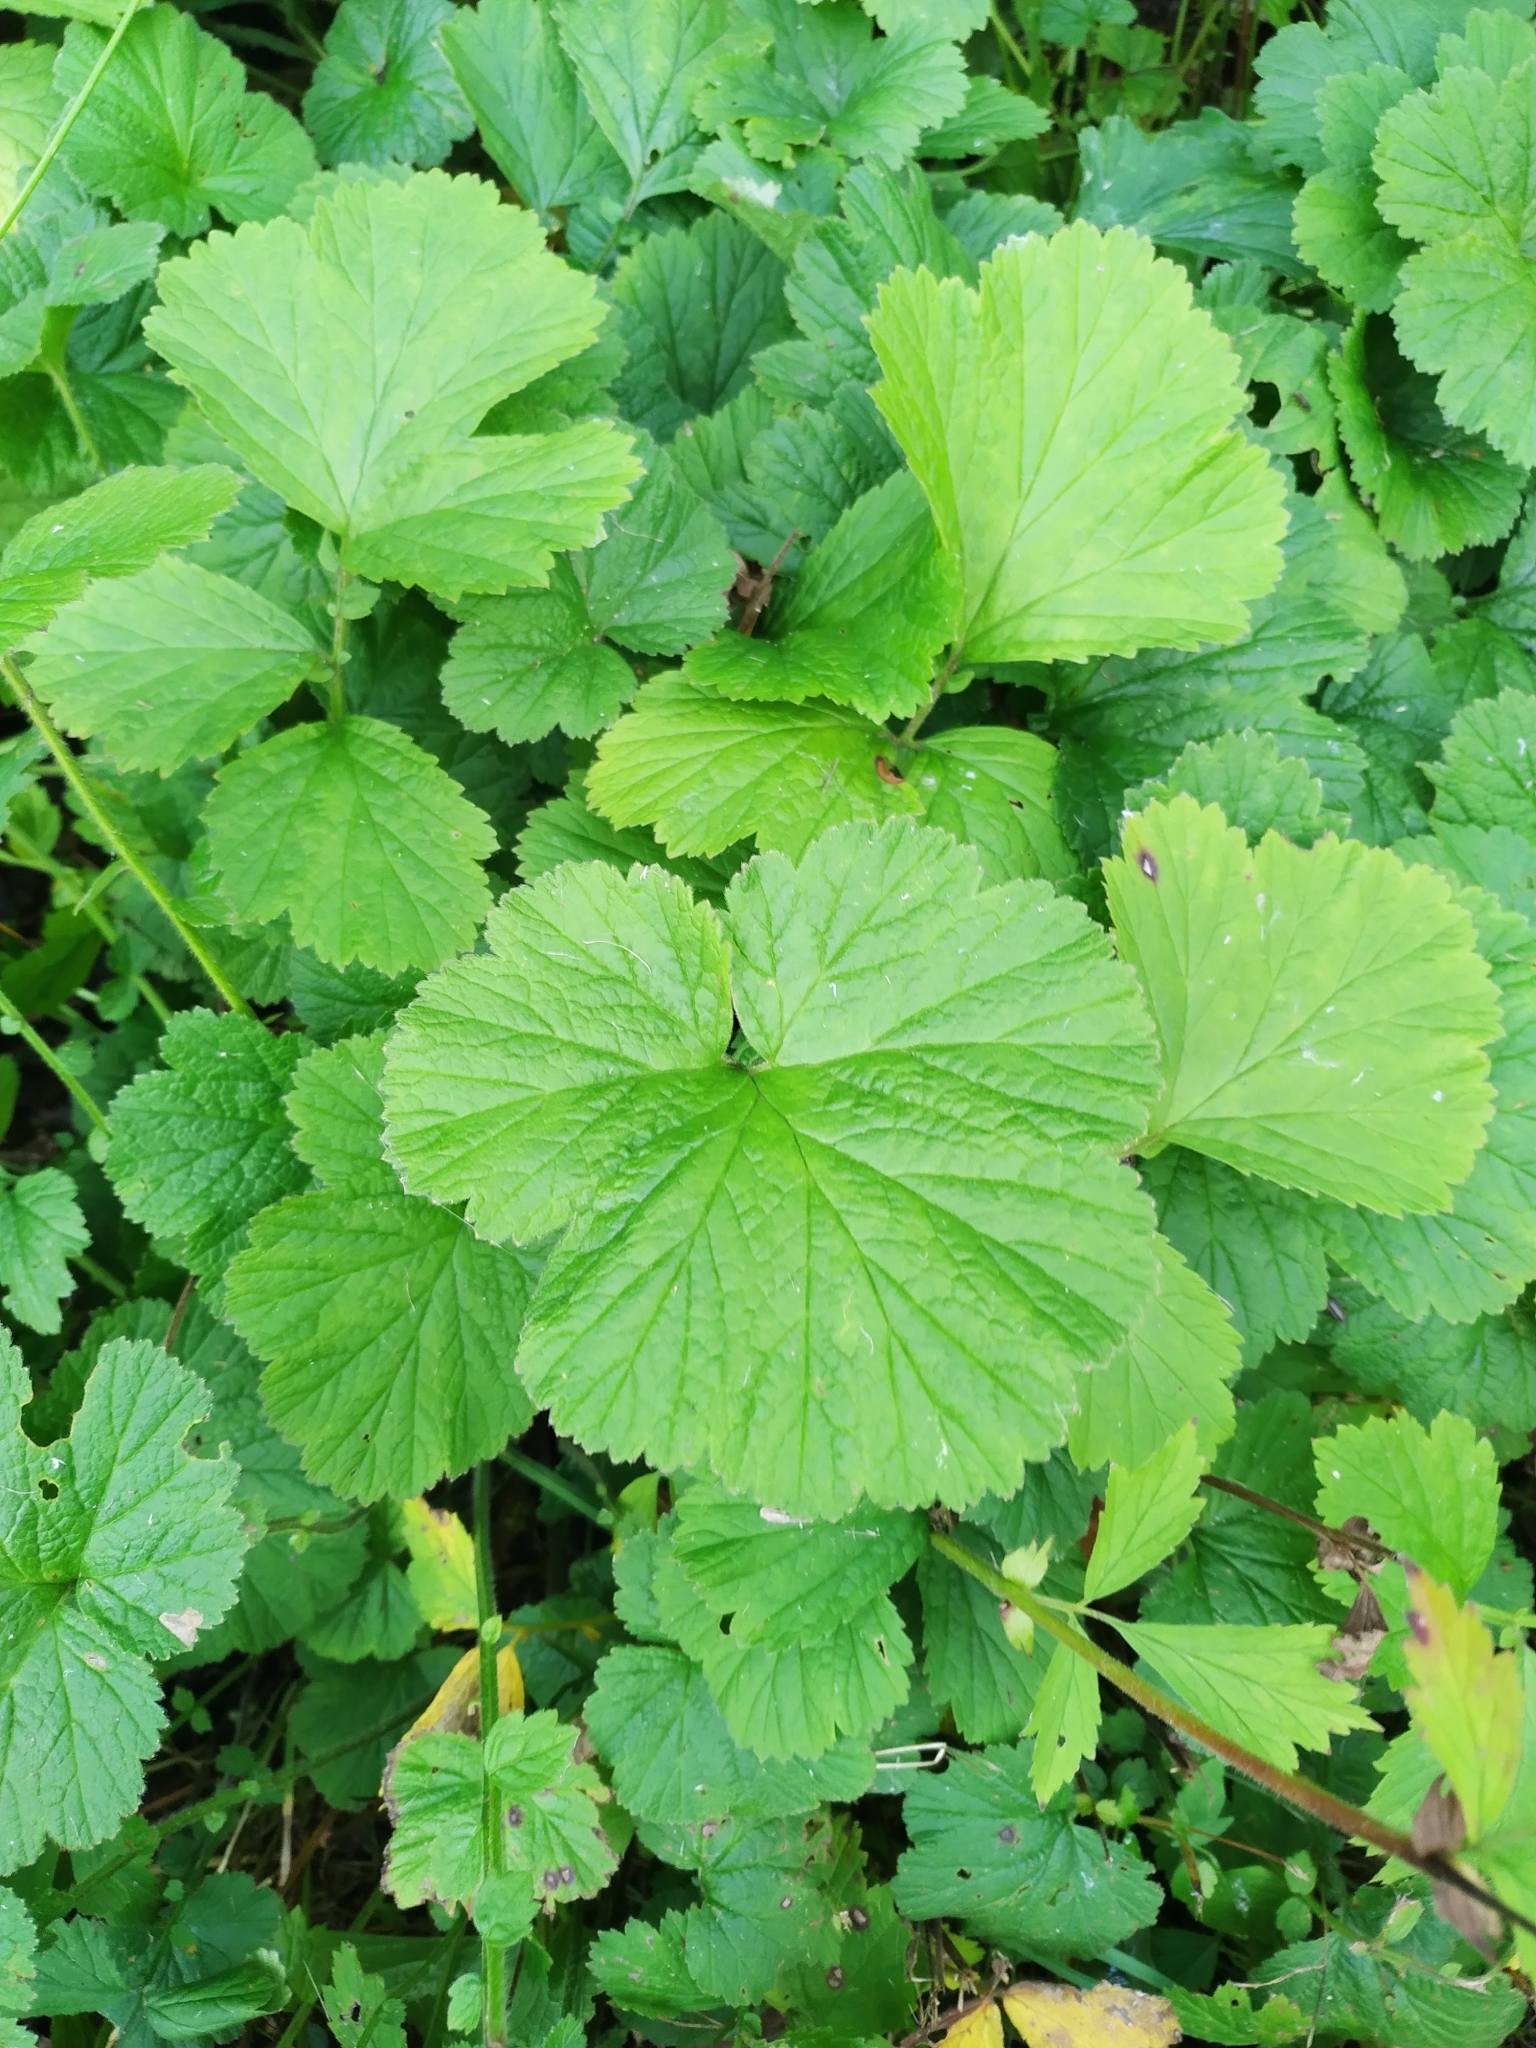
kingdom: Plantae
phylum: Tracheophyta
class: Magnoliopsida
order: Rosales
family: Rosaceae
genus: Geum
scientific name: Geum rivale
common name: Water avens
